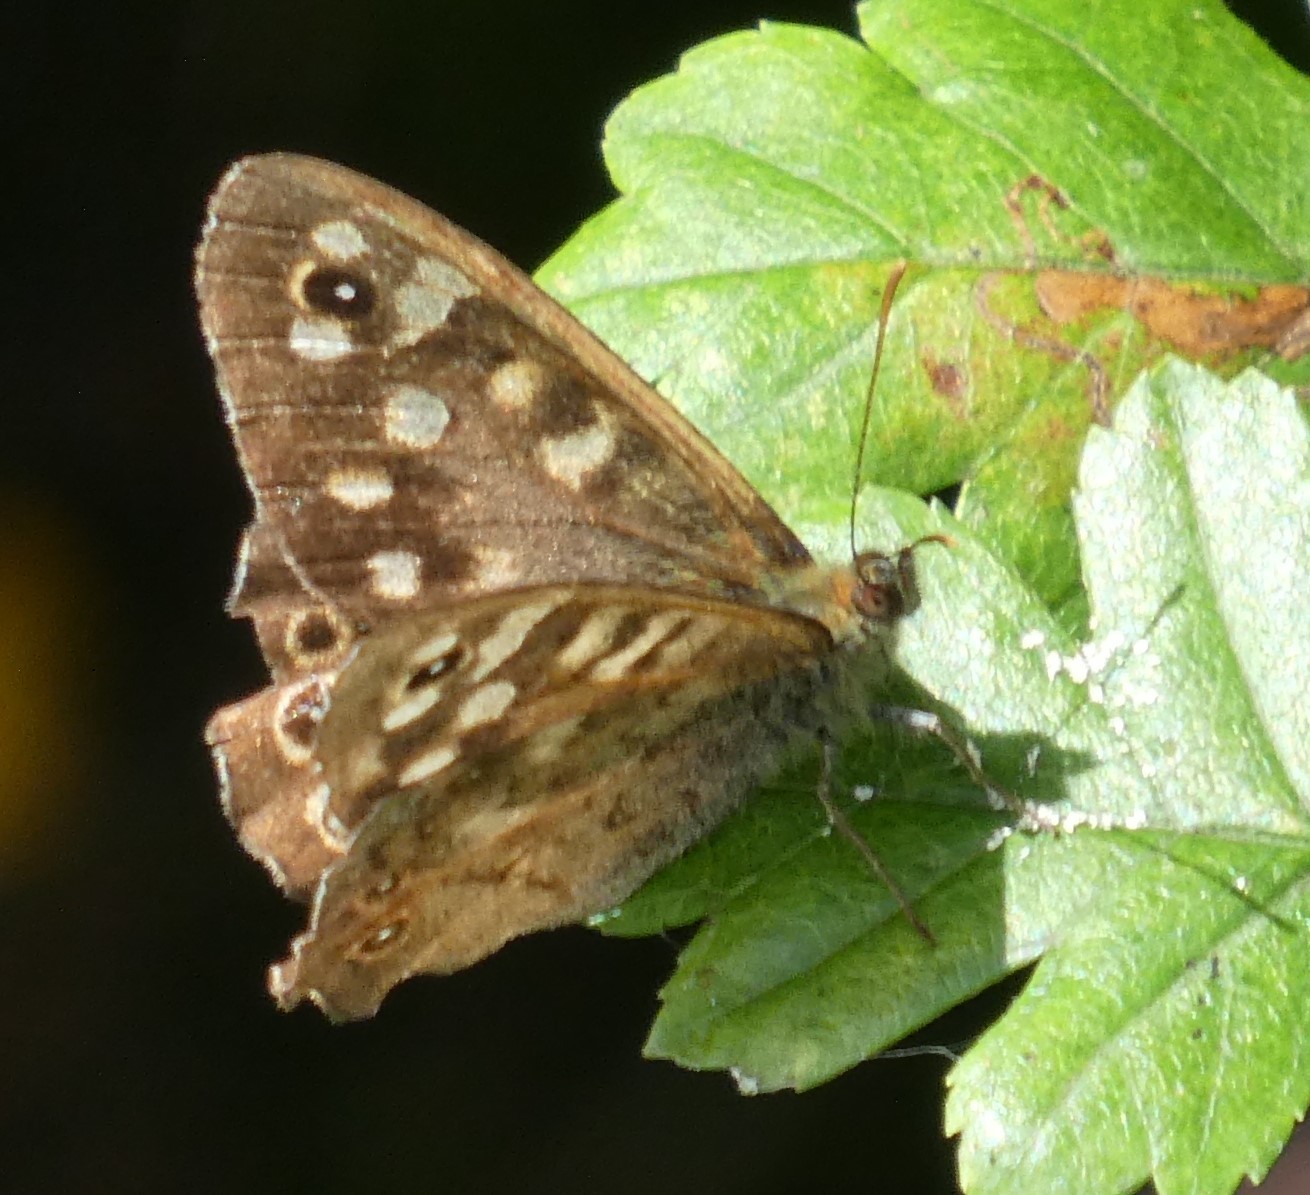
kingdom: Animalia
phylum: Arthropoda
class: Insecta
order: Lepidoptera
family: Nymphalidae
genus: Pararge
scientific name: Pararge aegeria
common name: Speckled wood
